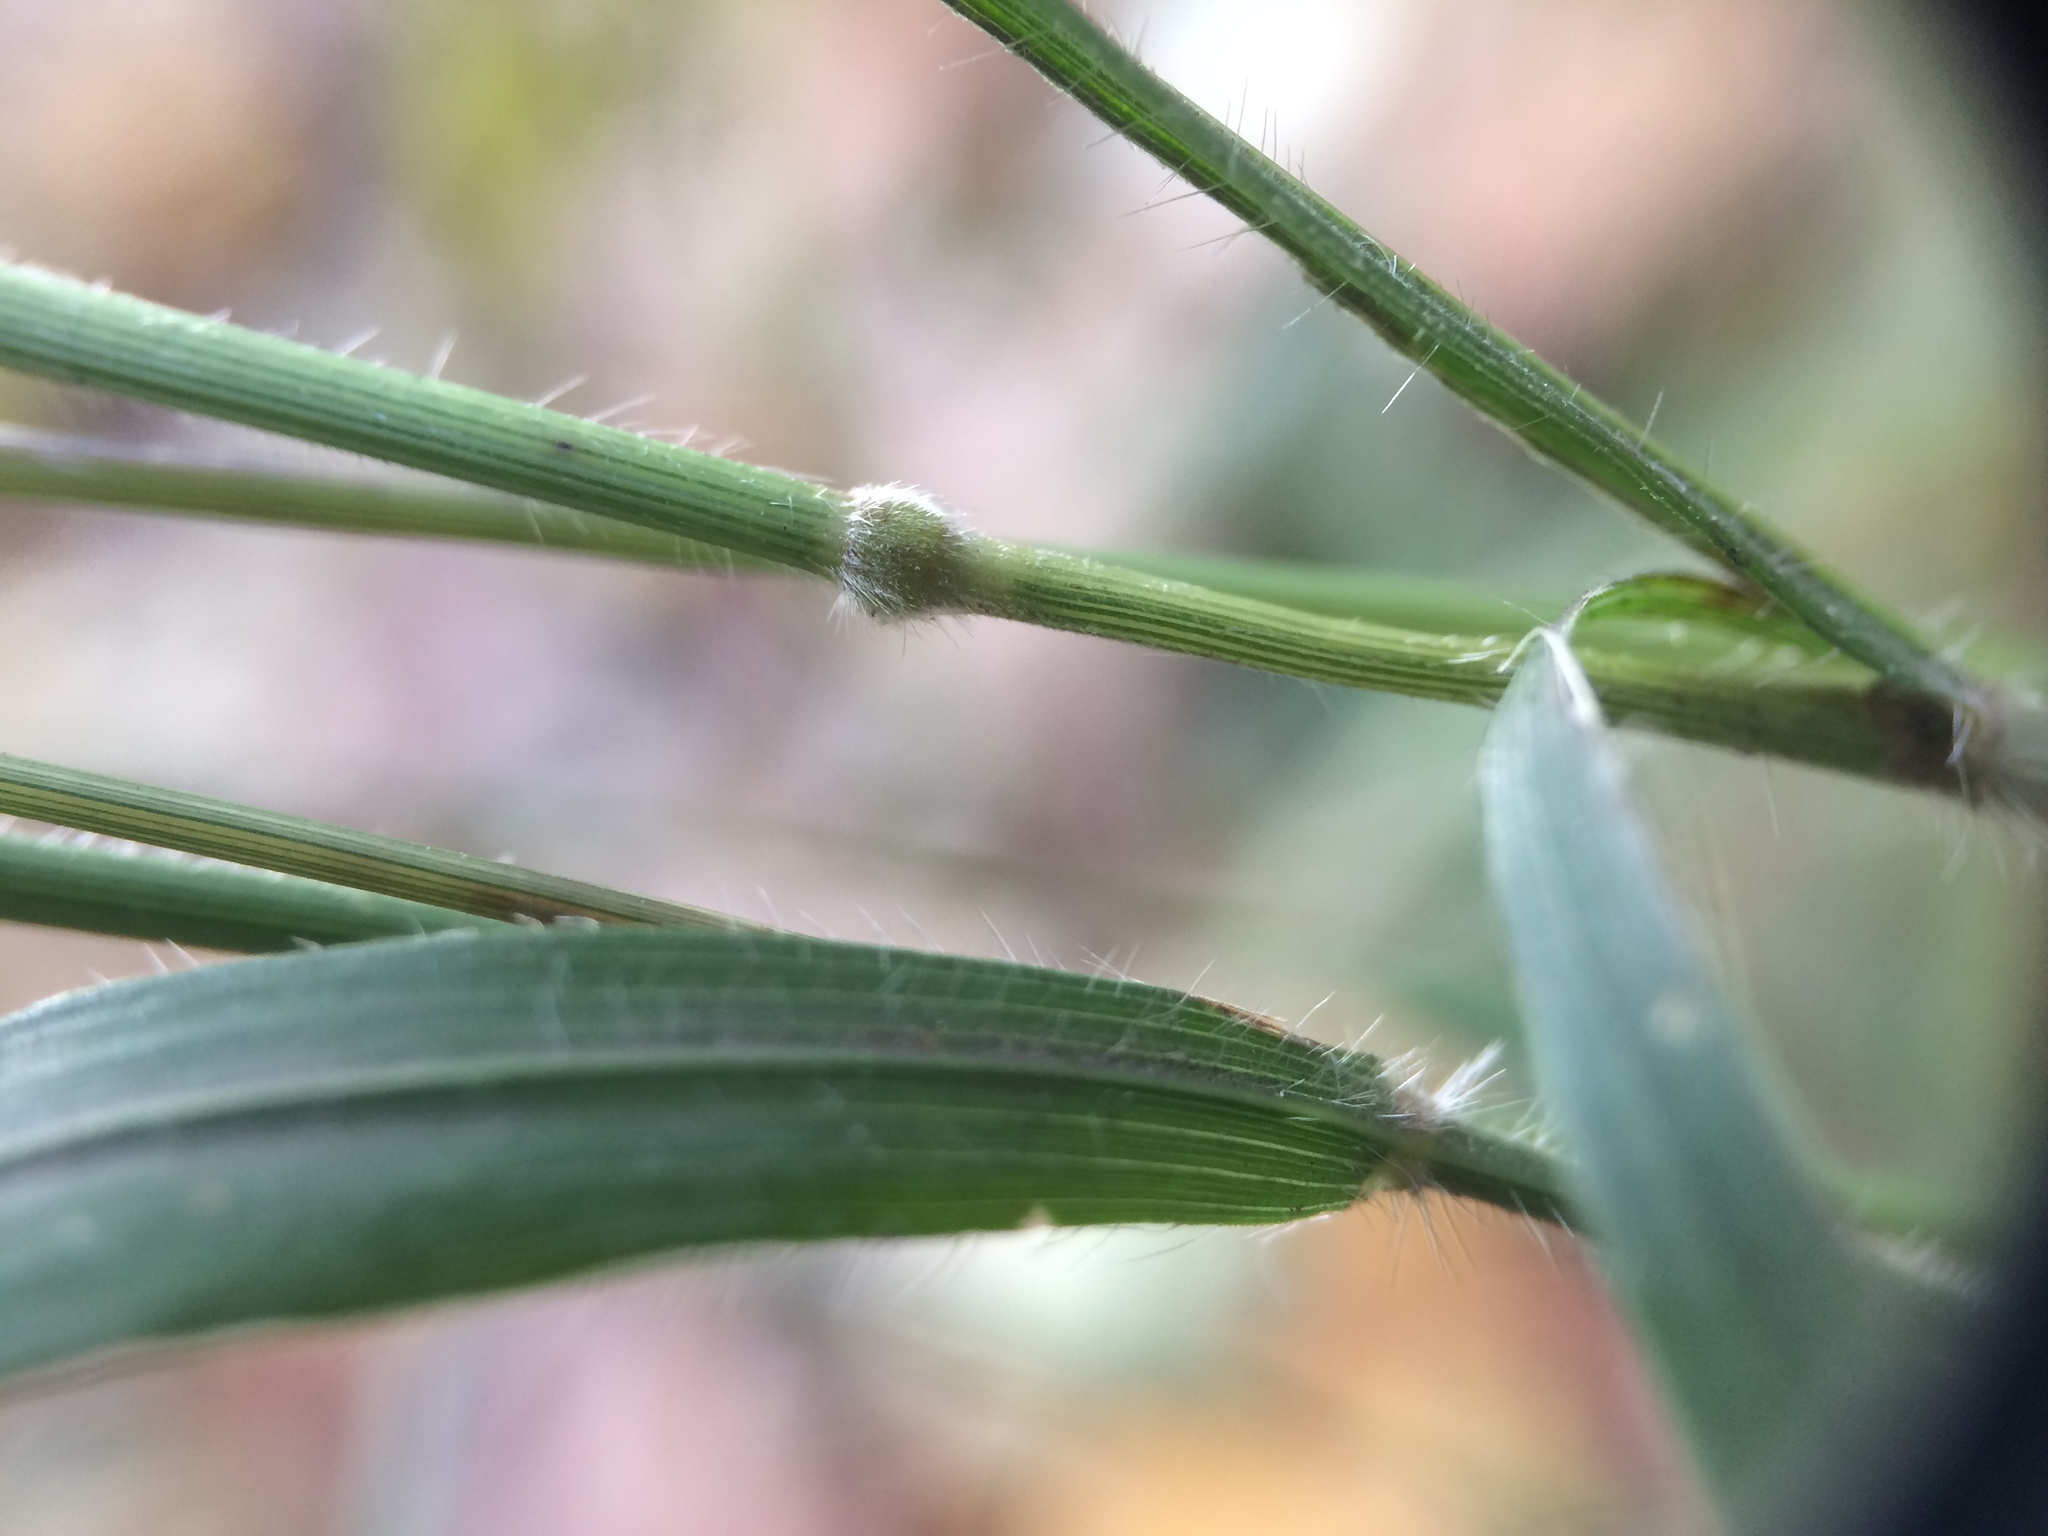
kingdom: Plantae
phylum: Tracheophyta
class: Liliopsida
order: Poales
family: Poaceae
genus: Brachypodium
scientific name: Brachypodium sylvaticum
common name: False-brome
